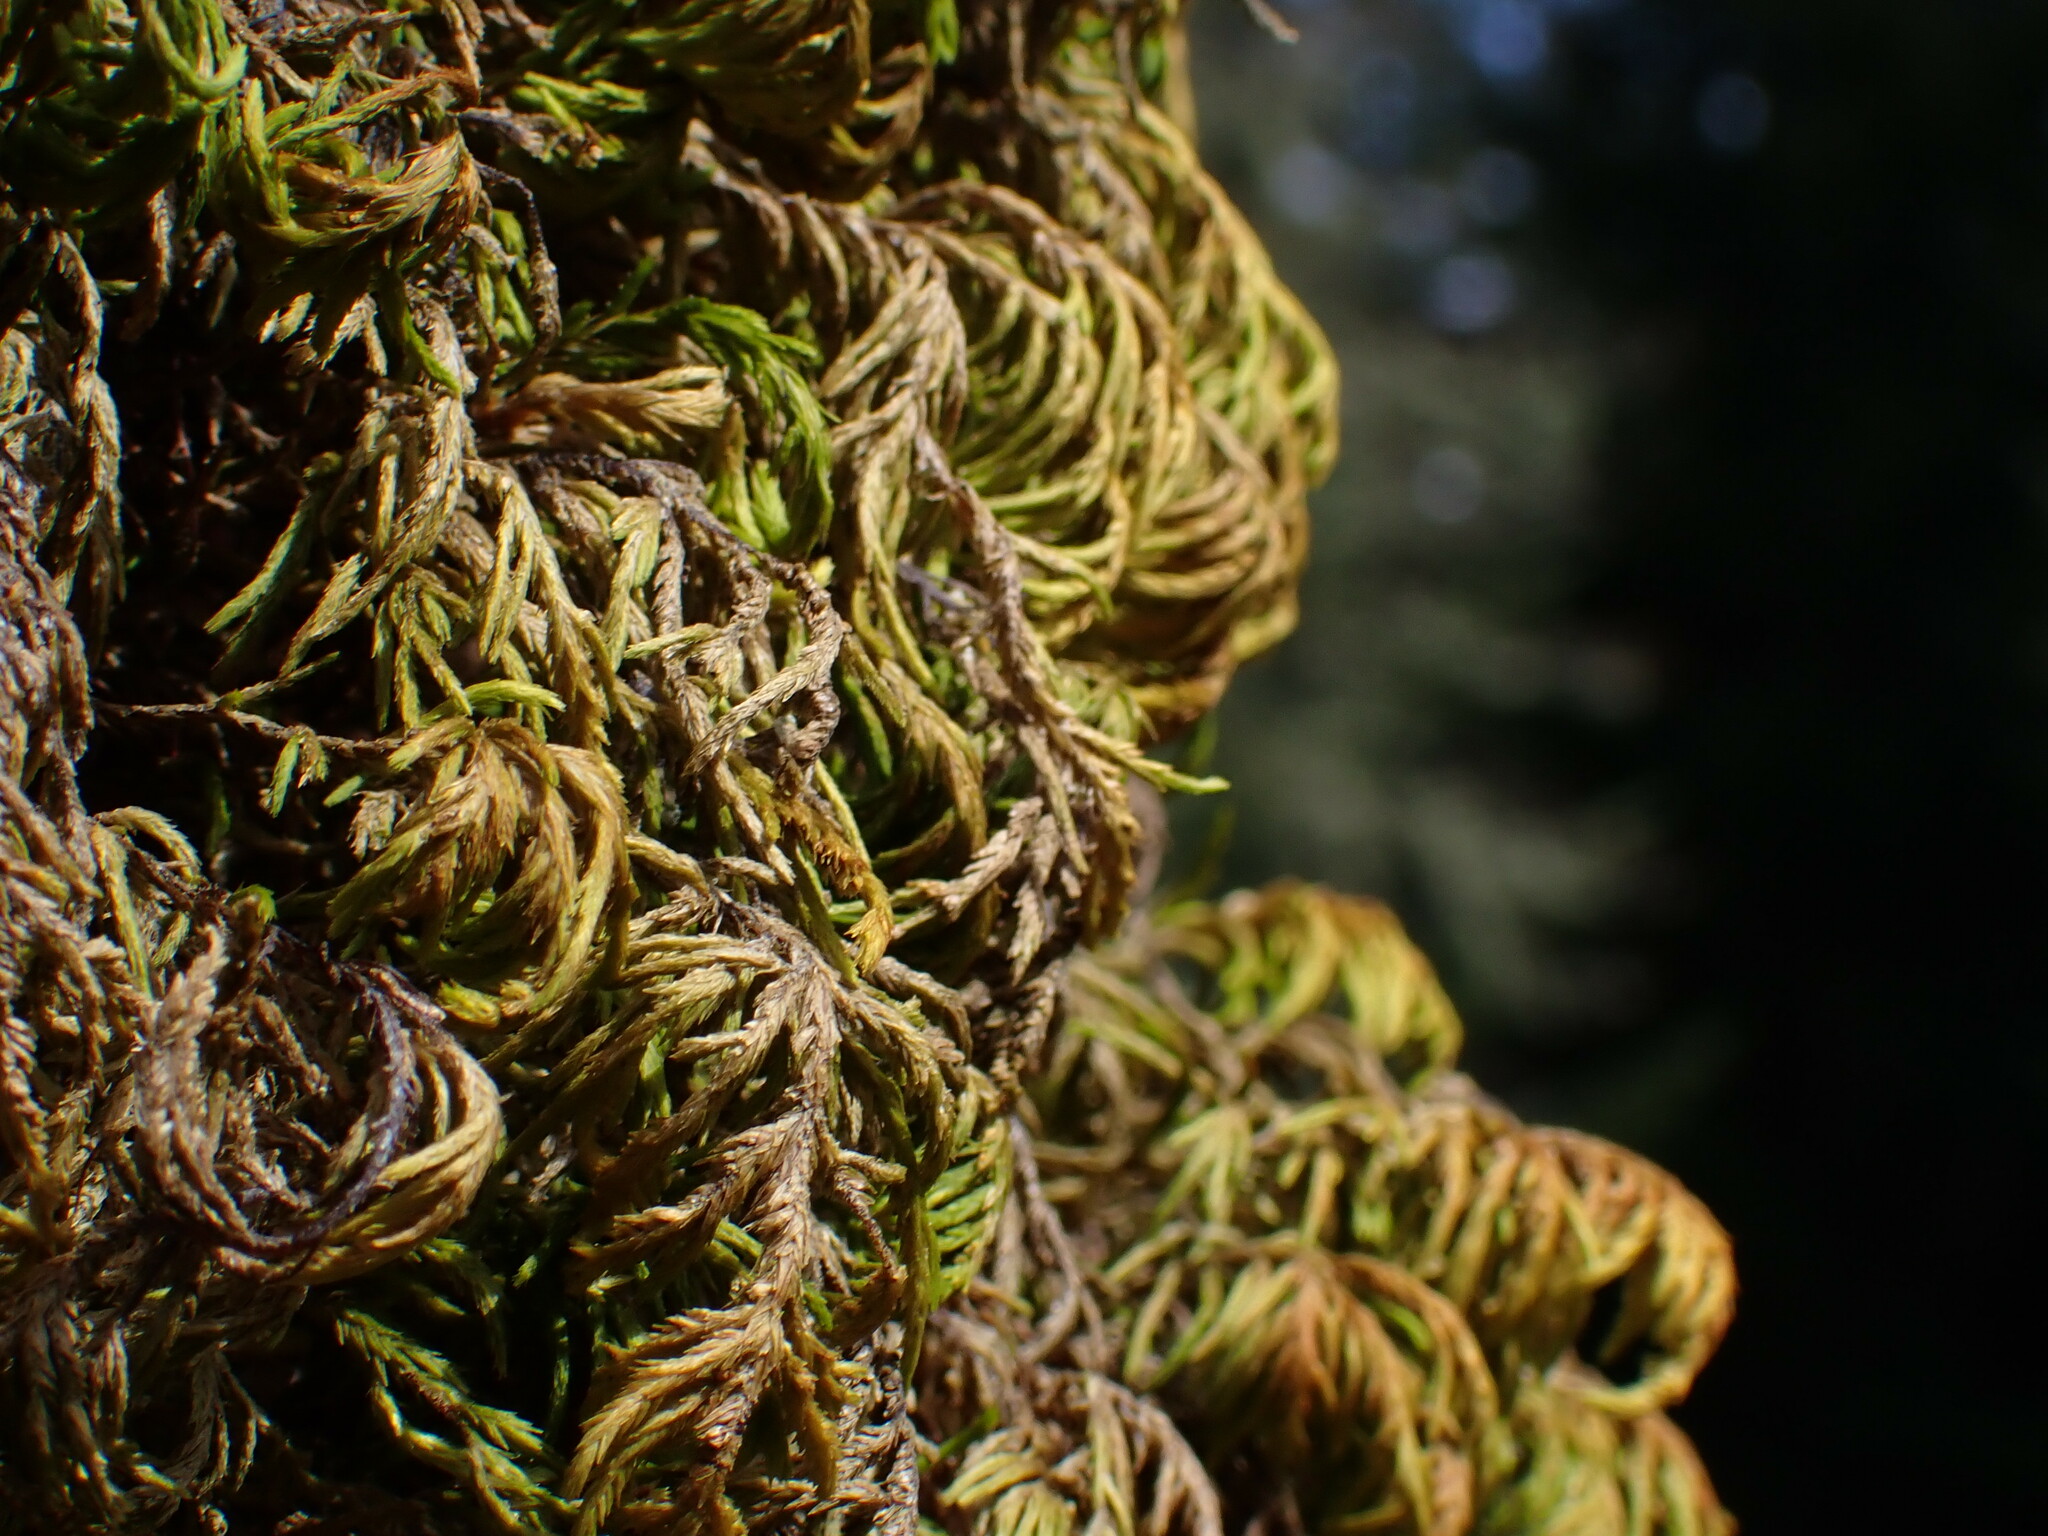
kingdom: Plantae
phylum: Bryophyta
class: Bryopsida
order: Hypnales
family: Cryphaeaceae
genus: Dendroalsia
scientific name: Dendroalsia abietina
